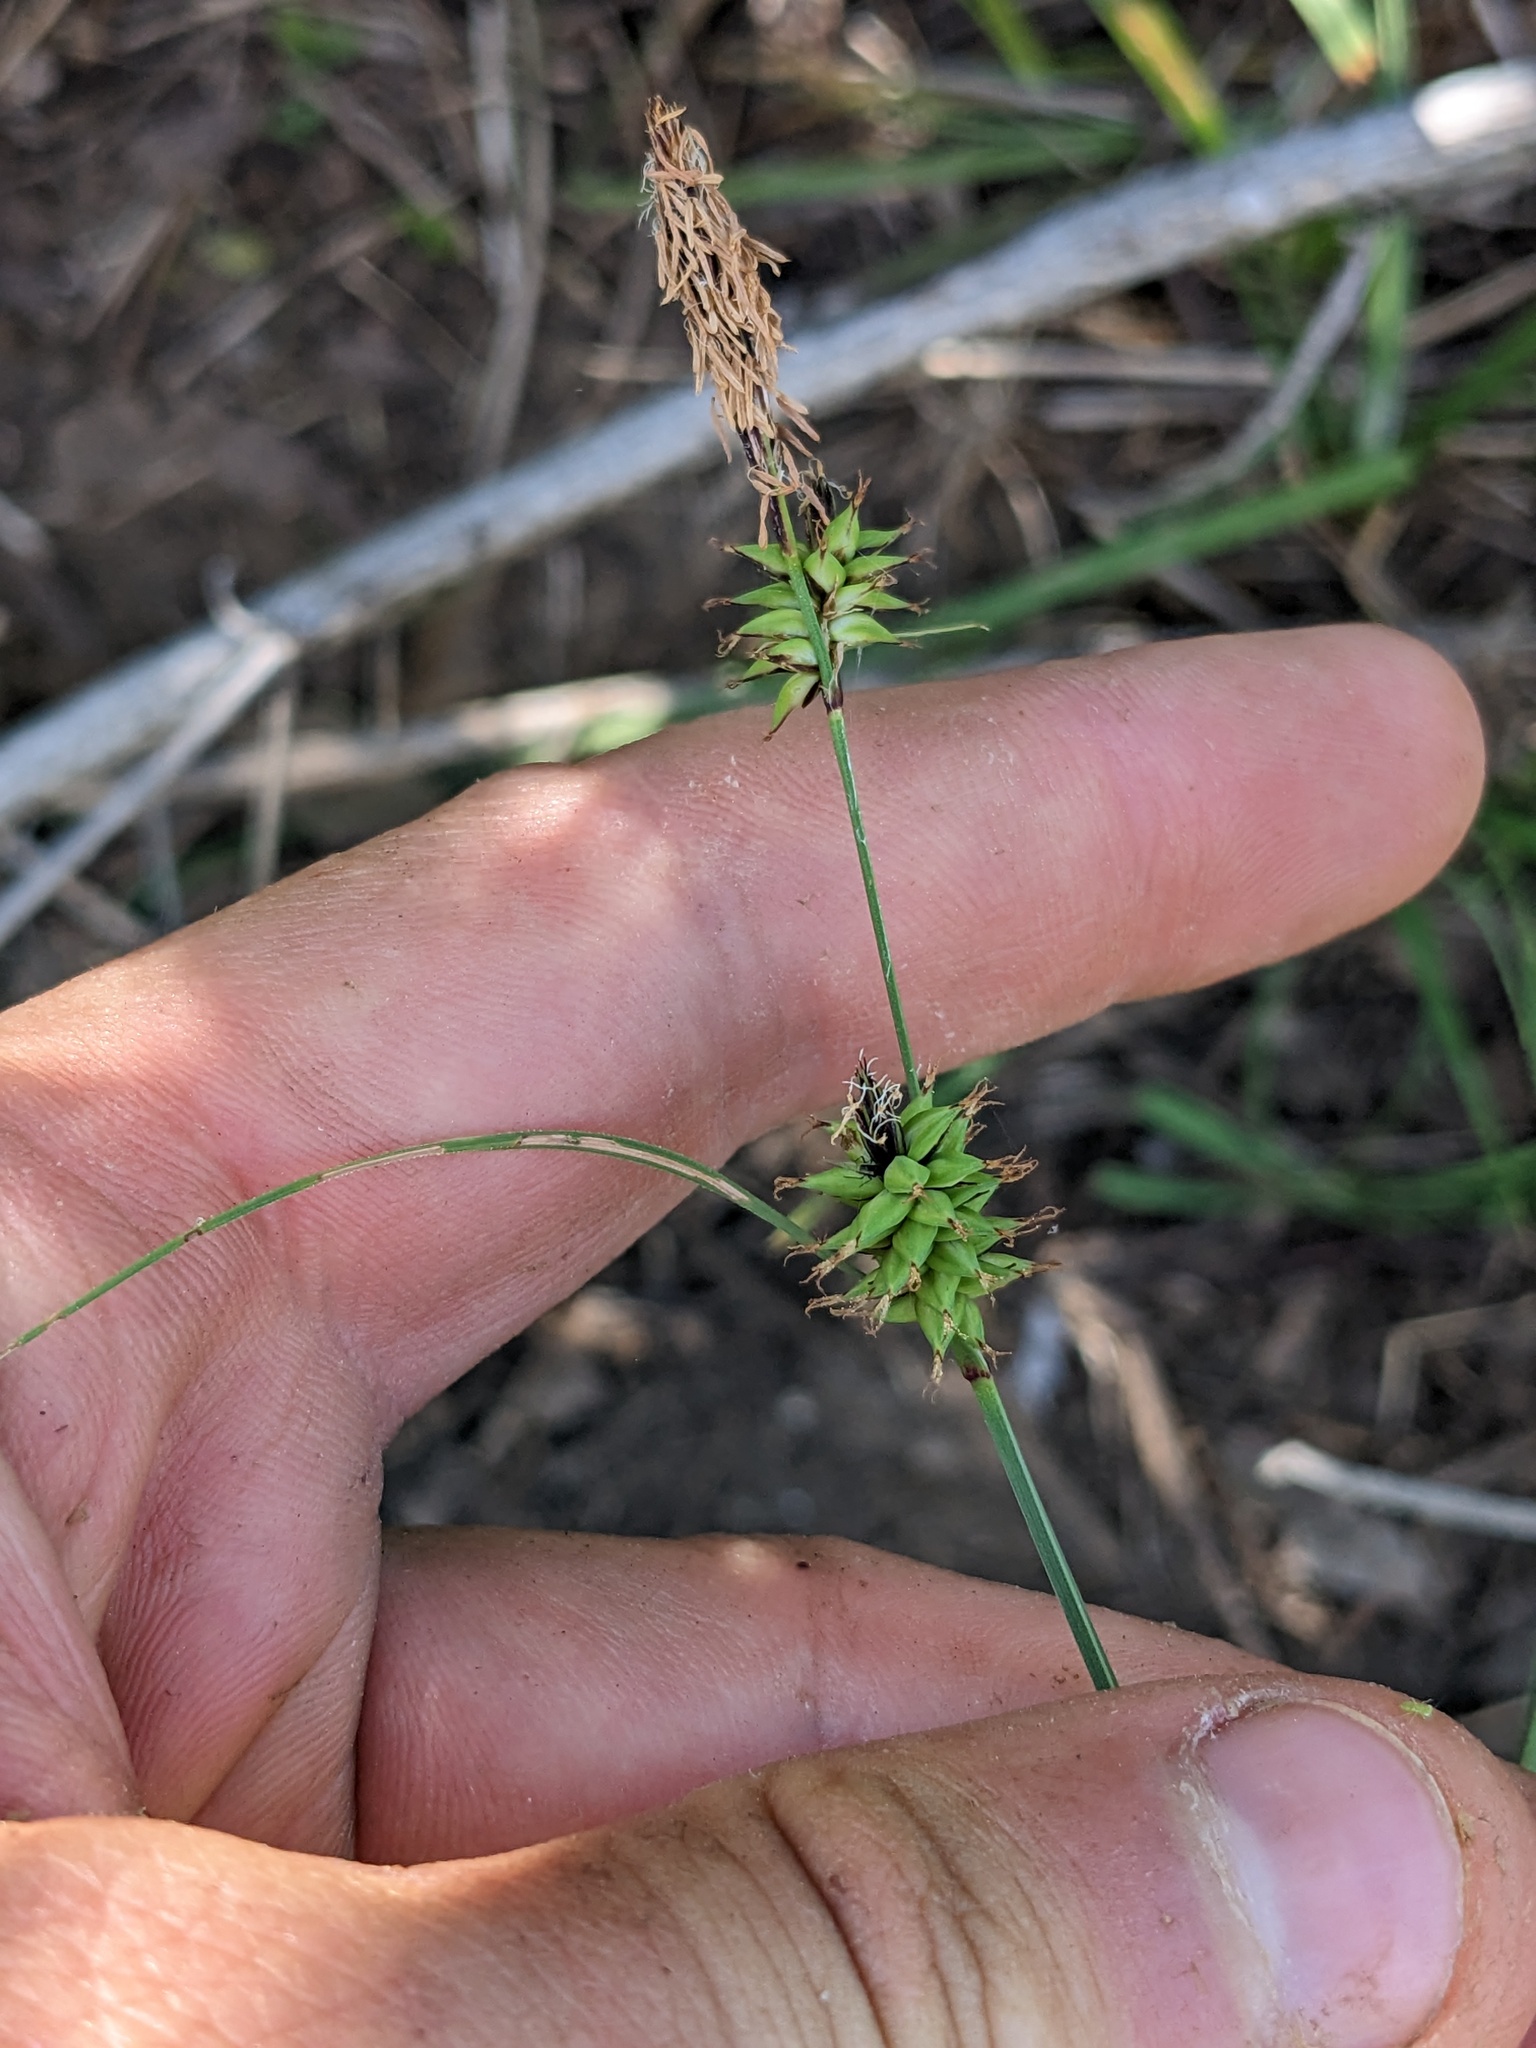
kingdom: Plantae
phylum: Tracheophyta
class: Liliopsida
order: Poales
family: Cyperaceae
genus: Carex
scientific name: Carex serratodens
